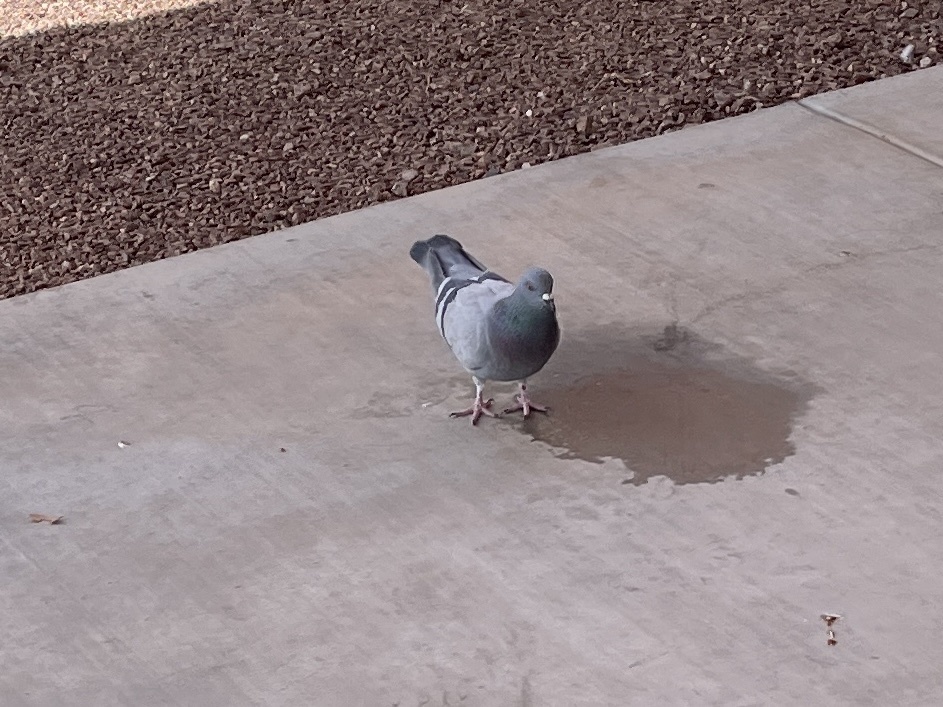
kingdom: Animalia
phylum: Chordata
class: Aves
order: Columbiformes
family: Columbidae
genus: Columba
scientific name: Columba livia
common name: Rock pigeon
